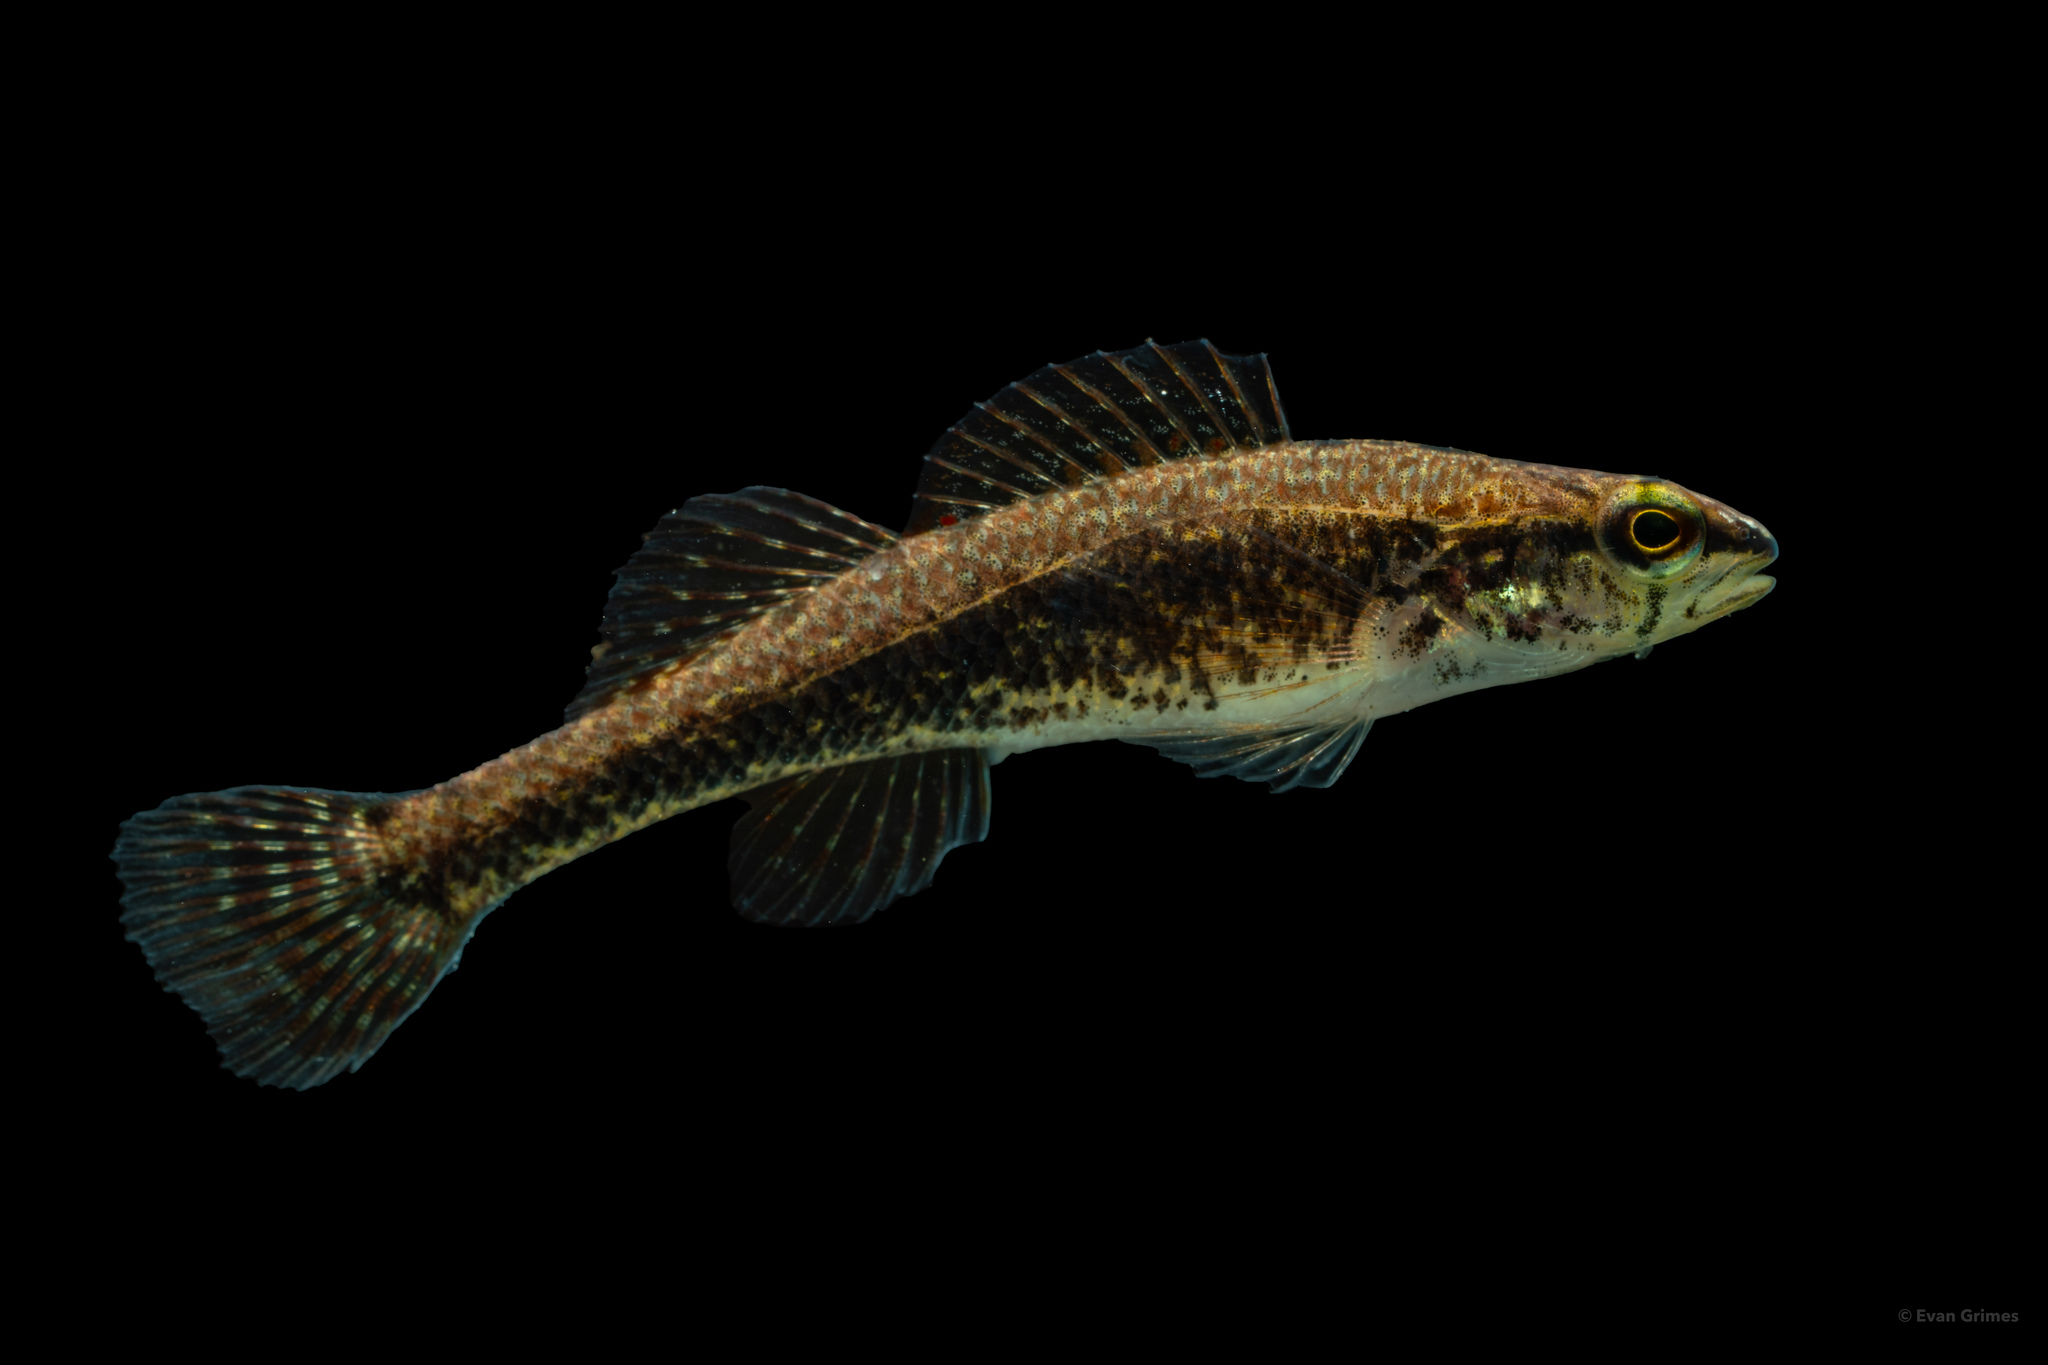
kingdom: Animalia
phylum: Chordata
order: Perciformes
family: Percidae
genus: Etheostoma
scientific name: Etheostoma edwini
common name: Brown darter
